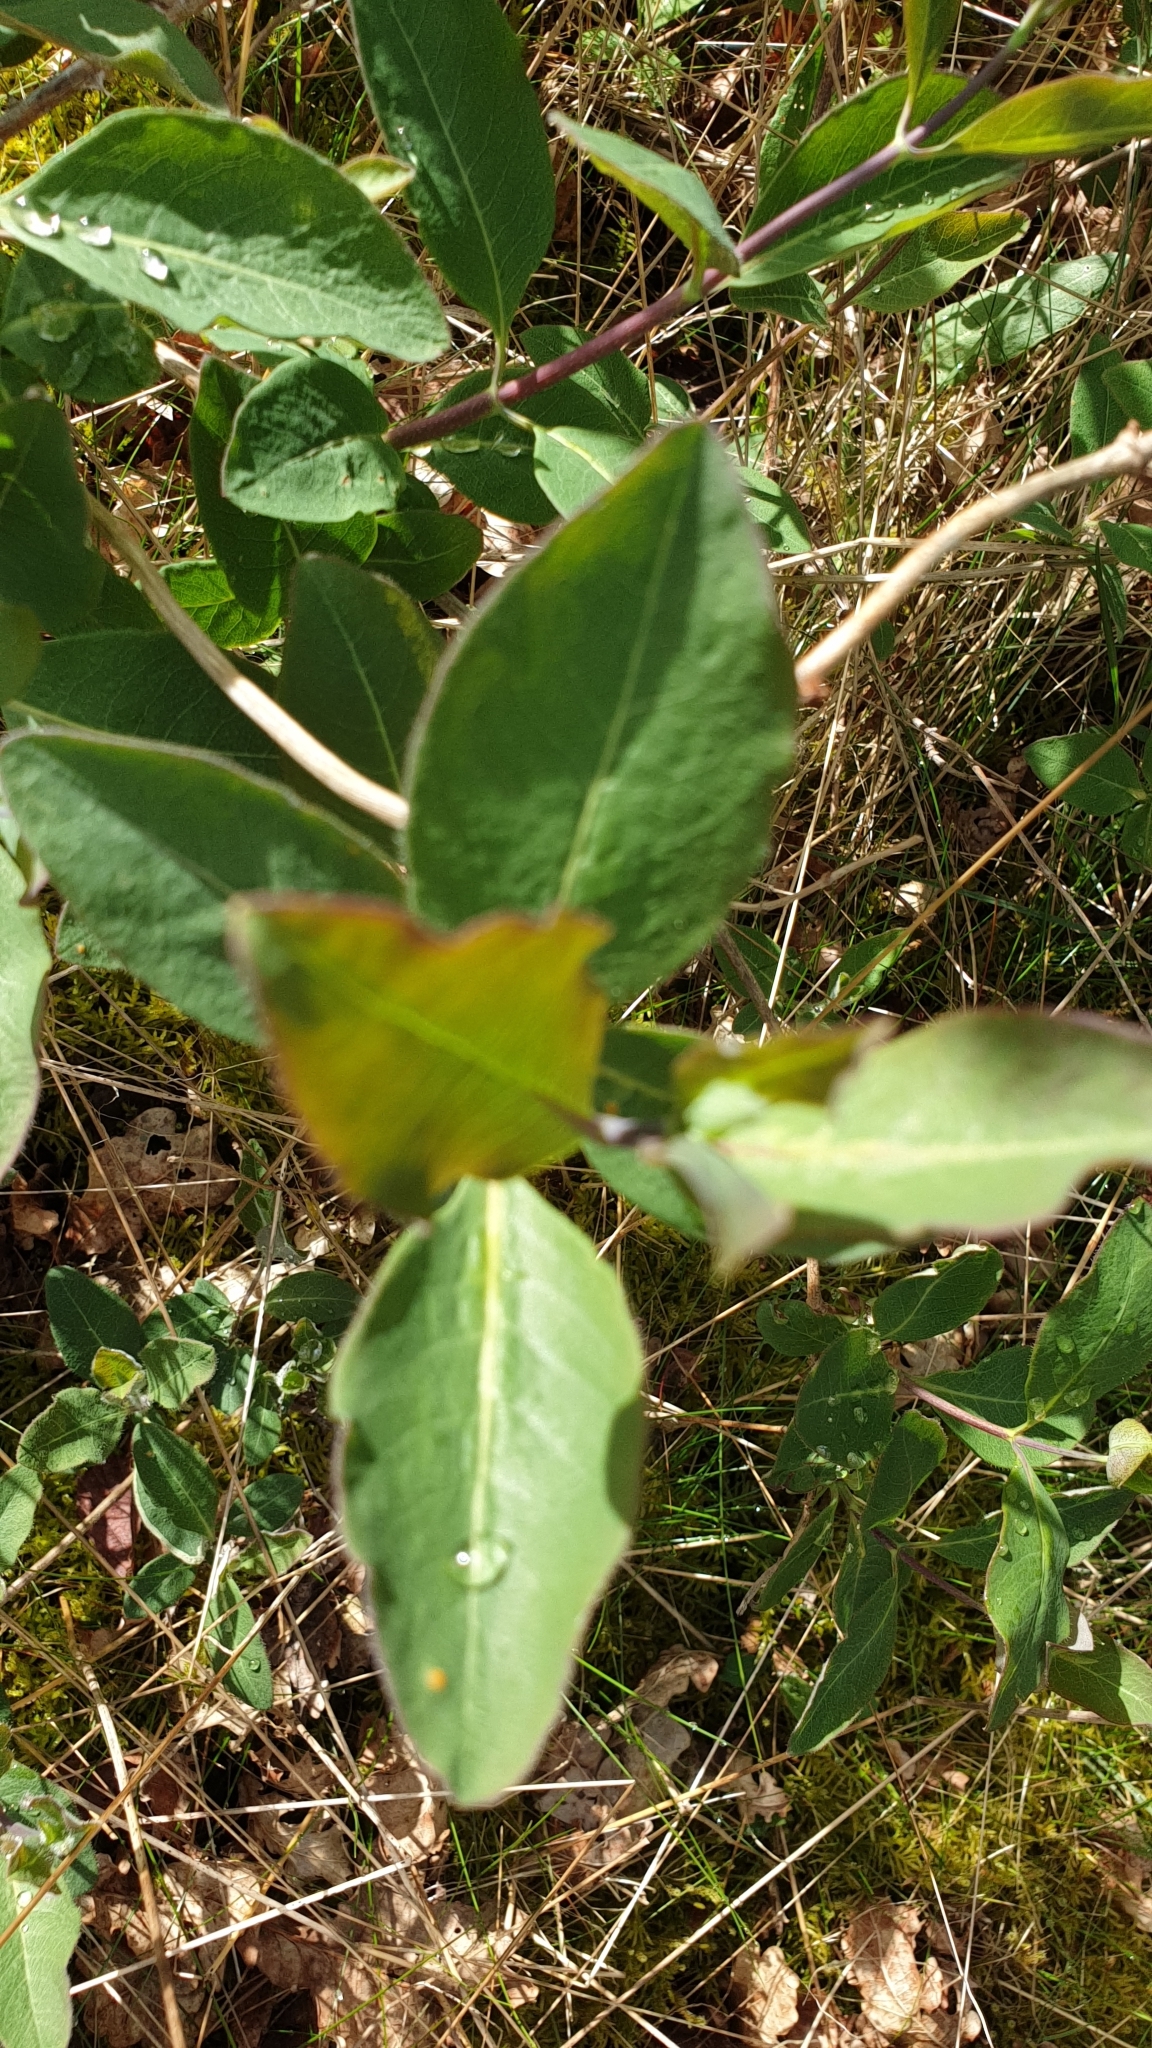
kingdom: Plantae
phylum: Tracheophyta
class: Magnoliopsida
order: Dipsacales
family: Caprifoliaceae
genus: Lonicera
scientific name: Lonicera periclymenum
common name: European honeysuckle
